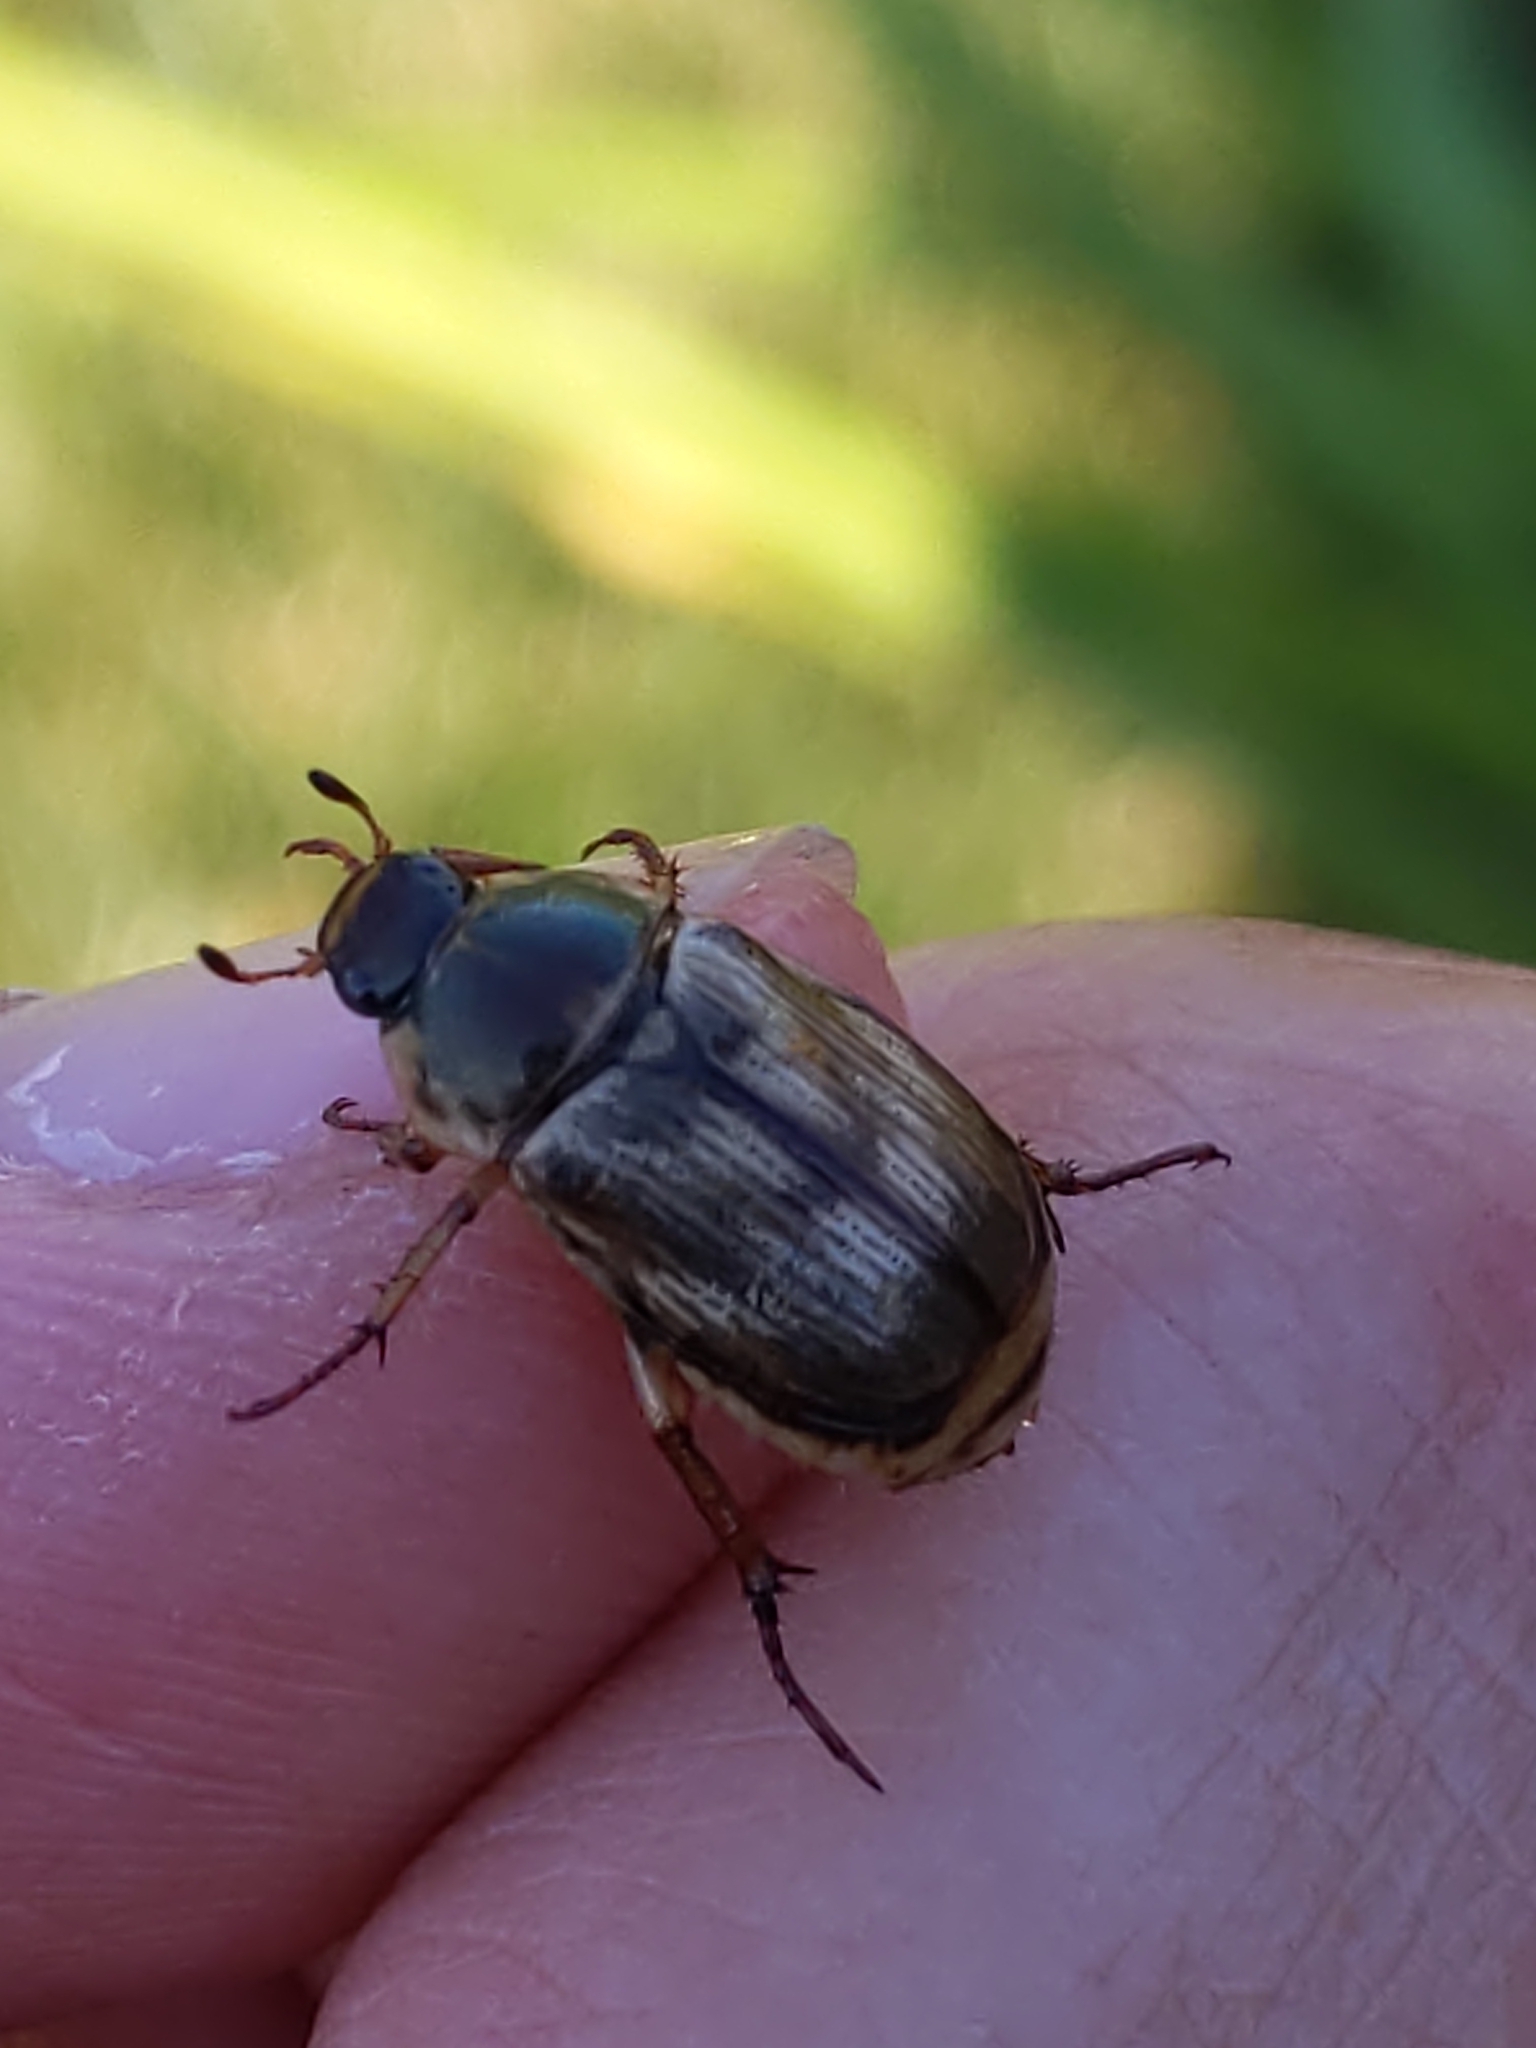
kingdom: Animalia
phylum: Arthropoda
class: Insecta
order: Coleoptera
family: Scarabaeidae
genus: Exomala
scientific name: Exomala orientalis
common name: Oriental beetle
